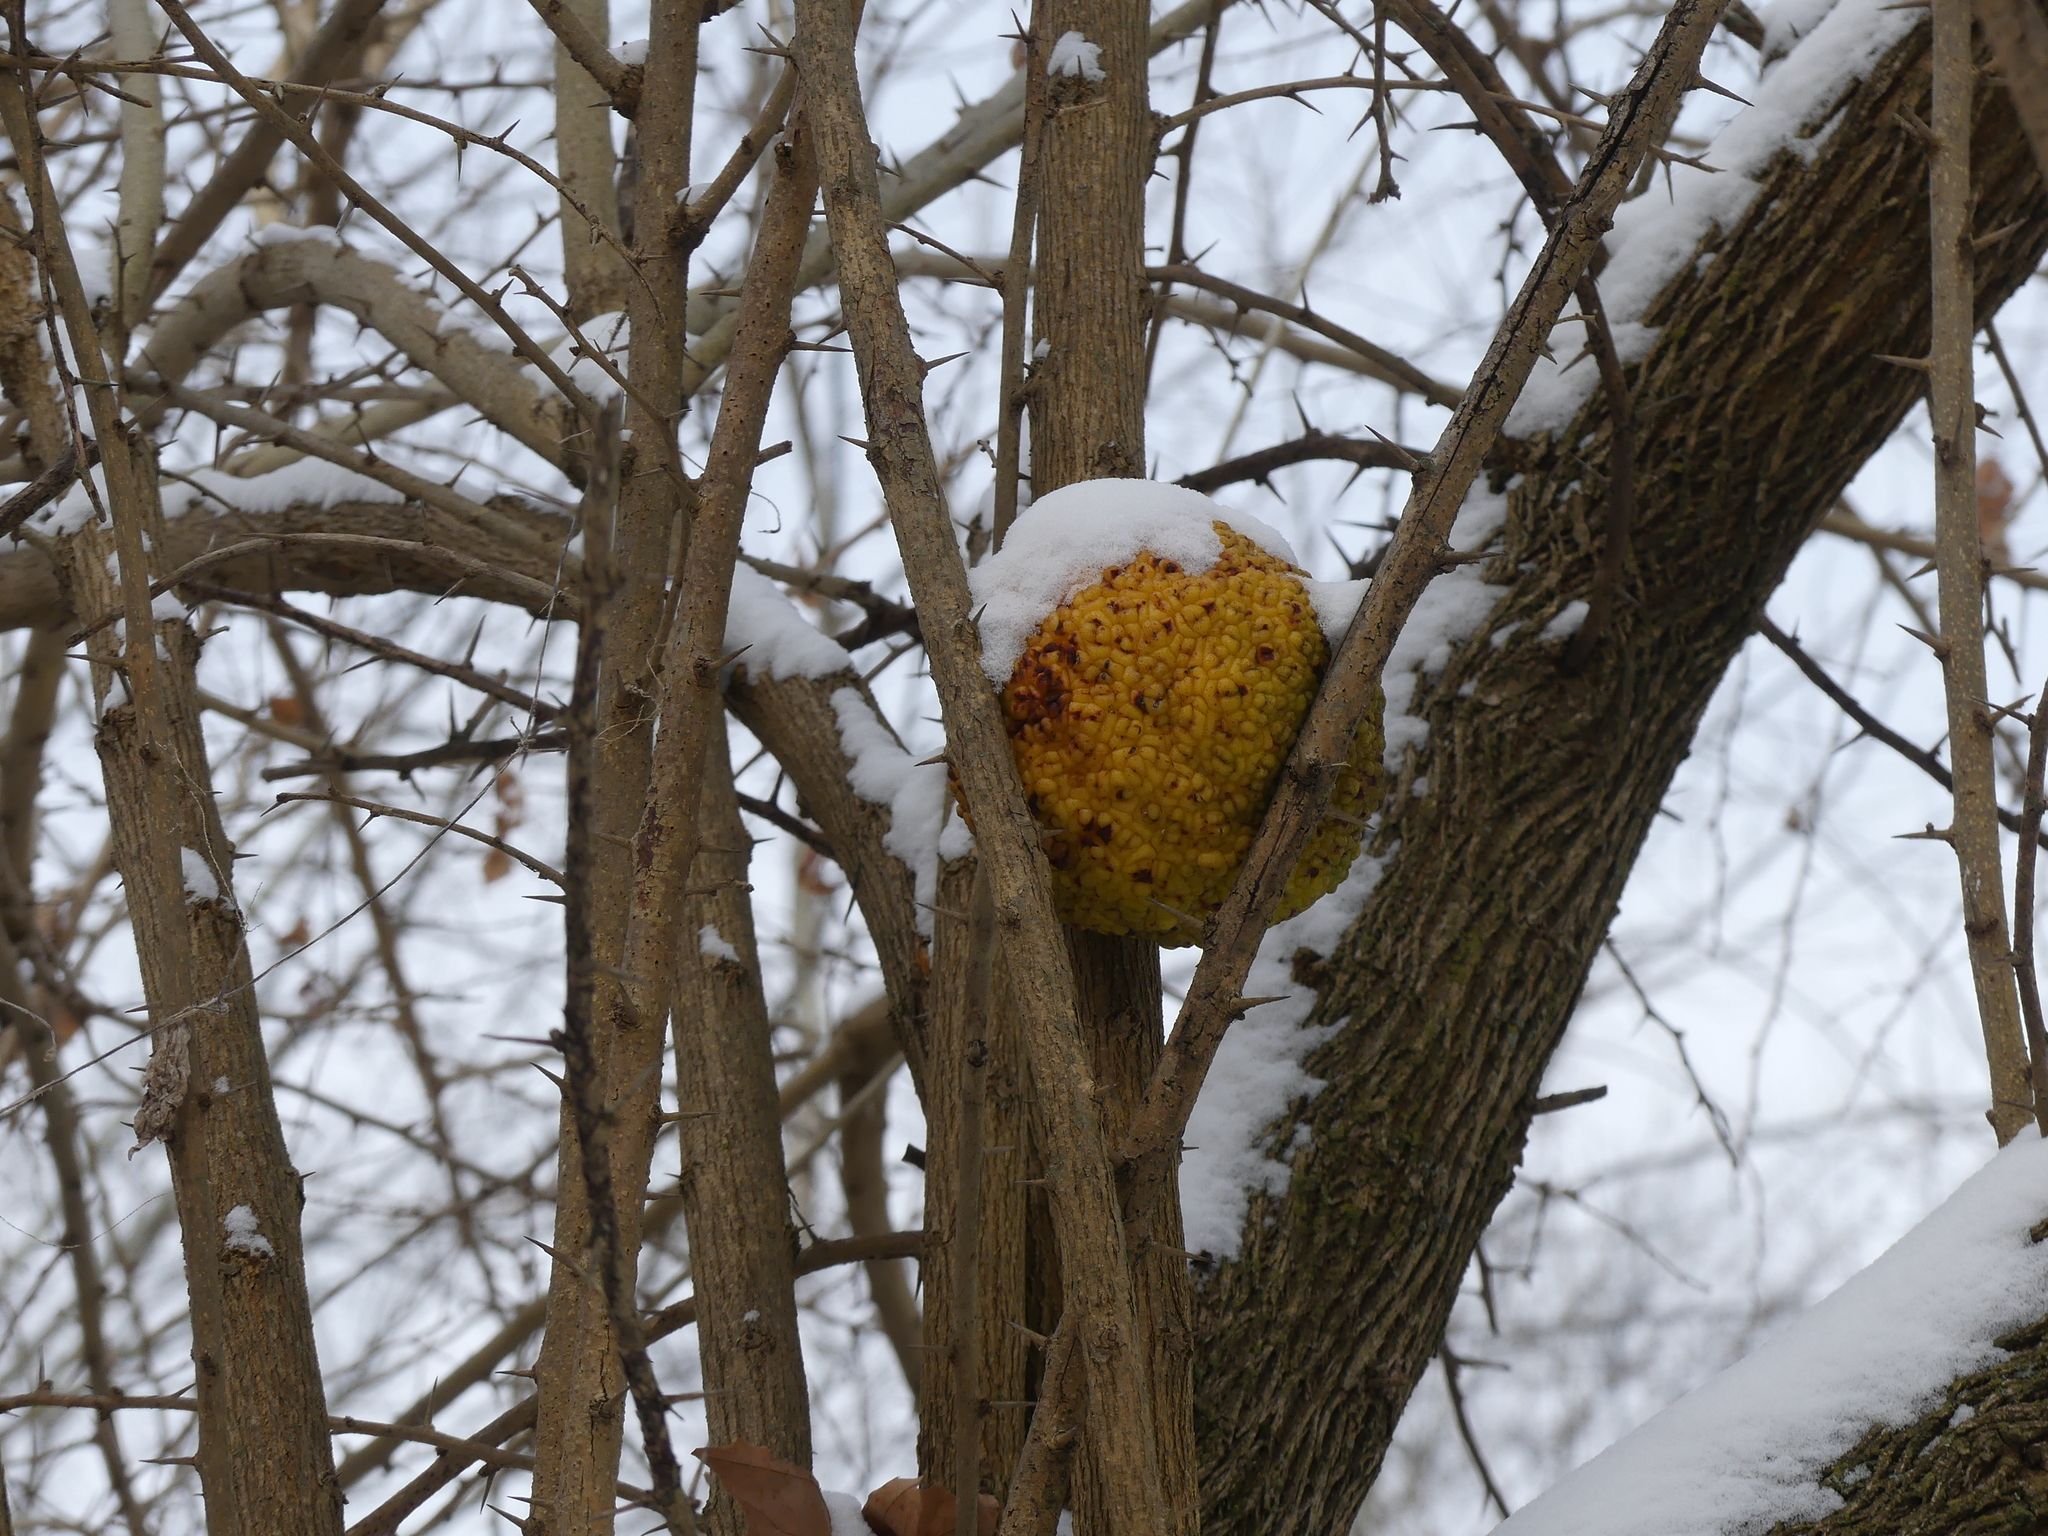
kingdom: Plantae
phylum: Tracheophyta
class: Magnoliopsida
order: Rosales
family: Moraceae
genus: Maclura
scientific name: Maclura pomifera
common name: Osage-orange
